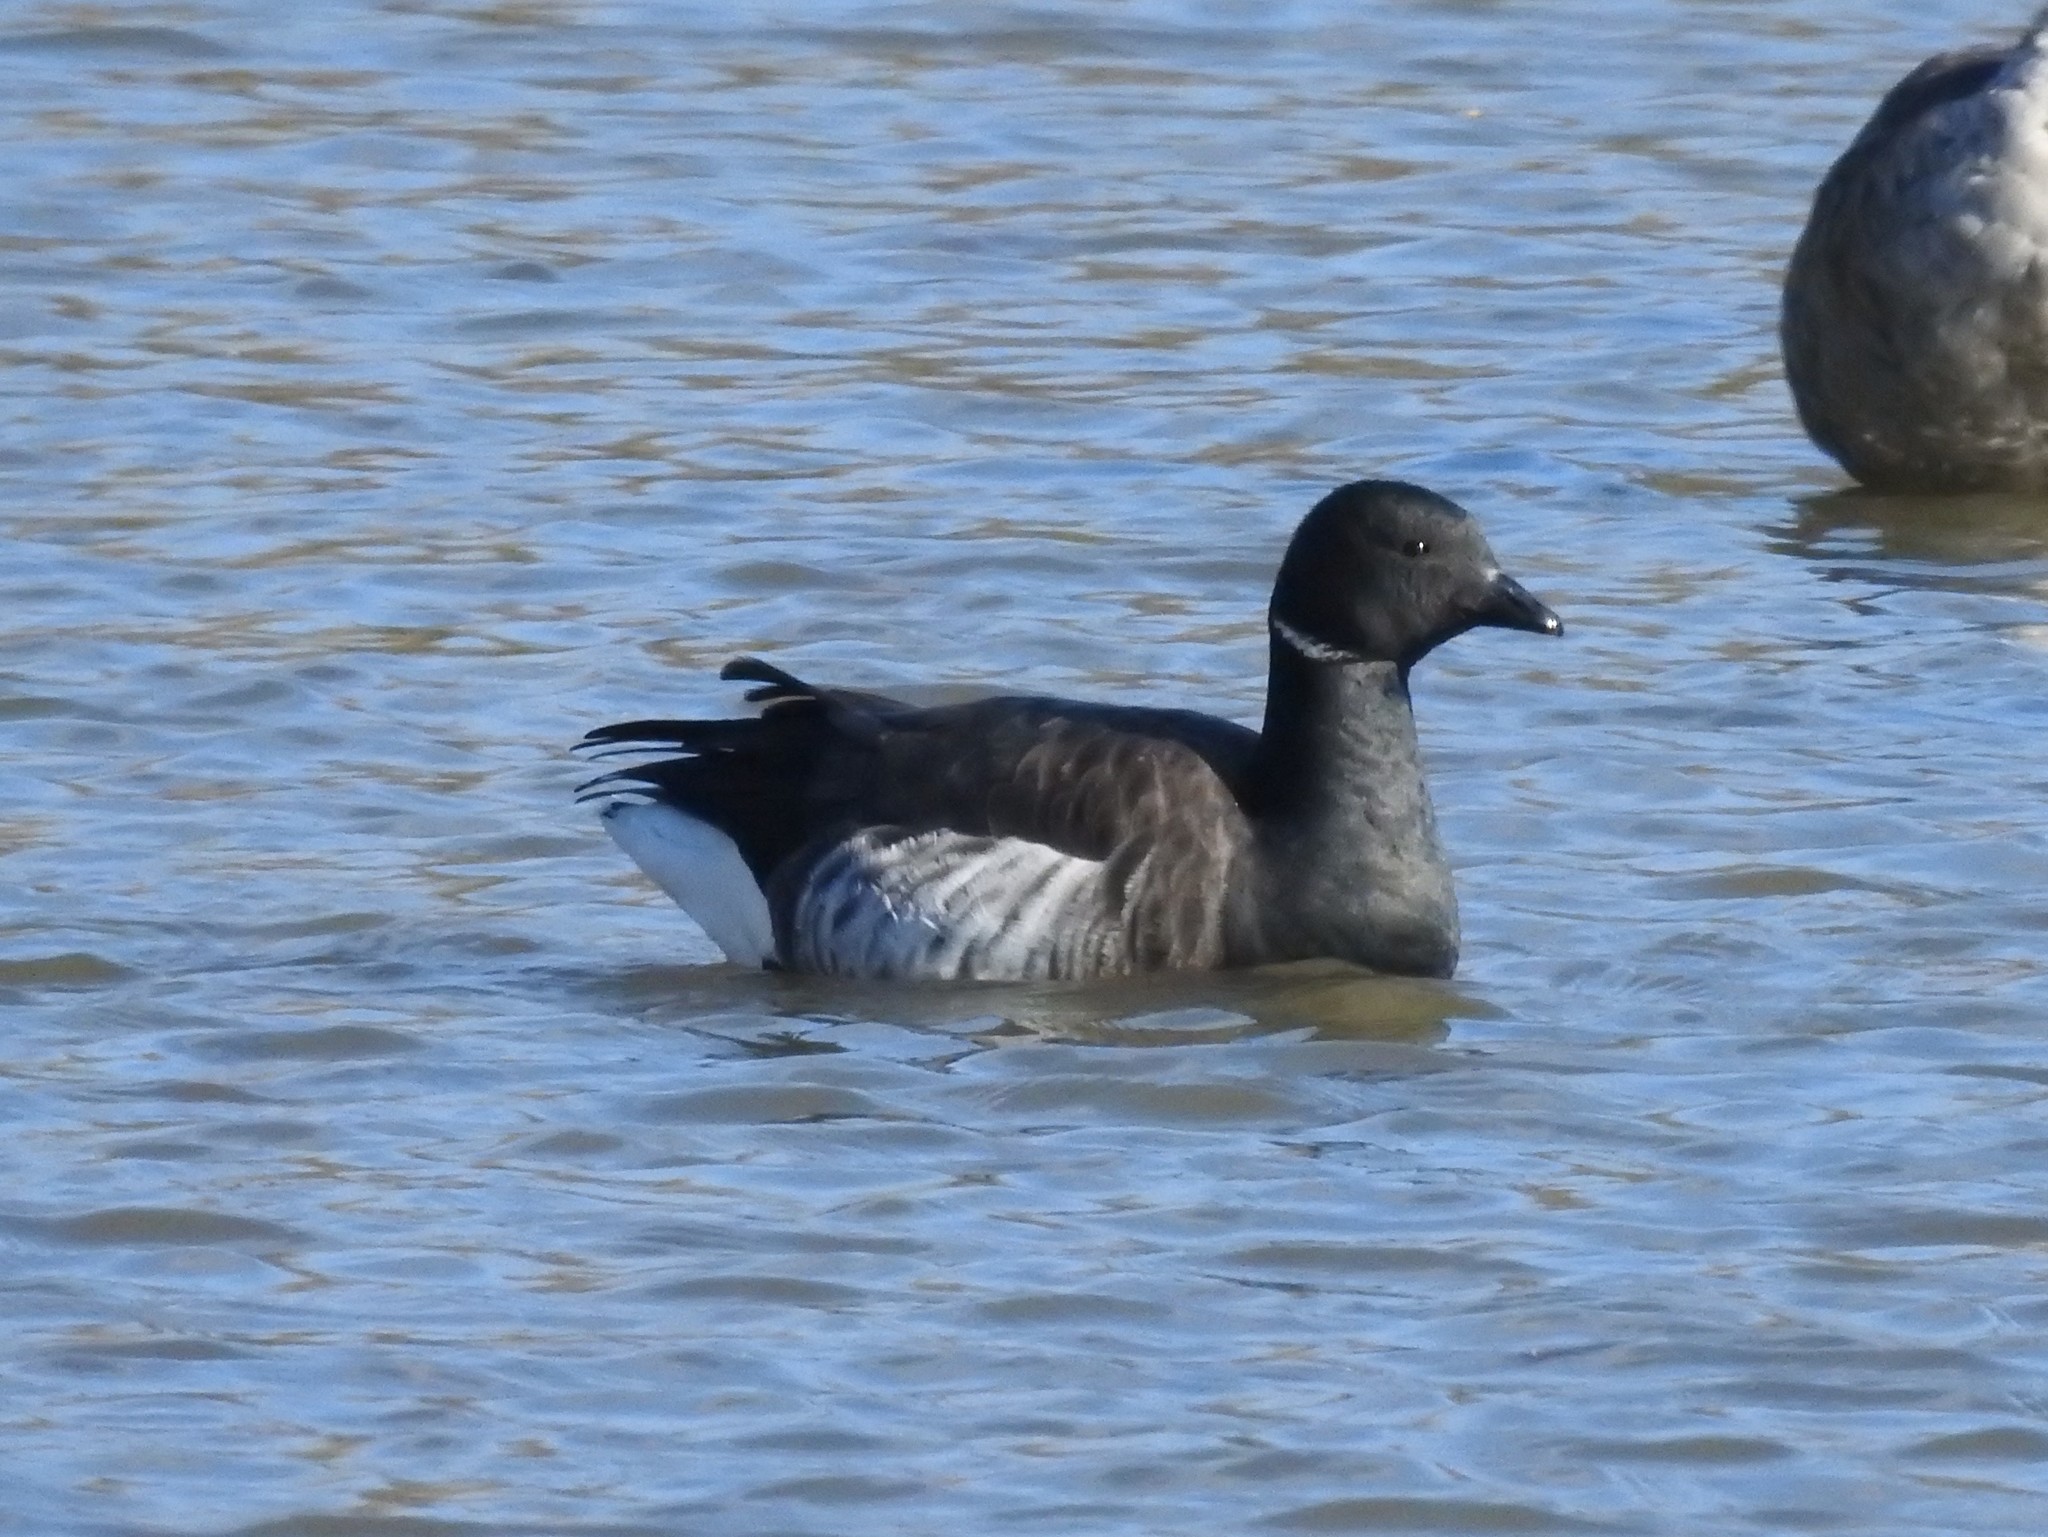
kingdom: Animalia
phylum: Chordata
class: Aves
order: Anseriformes
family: Anatidae
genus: Branta
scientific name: Branta bernicla
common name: Brant goose
